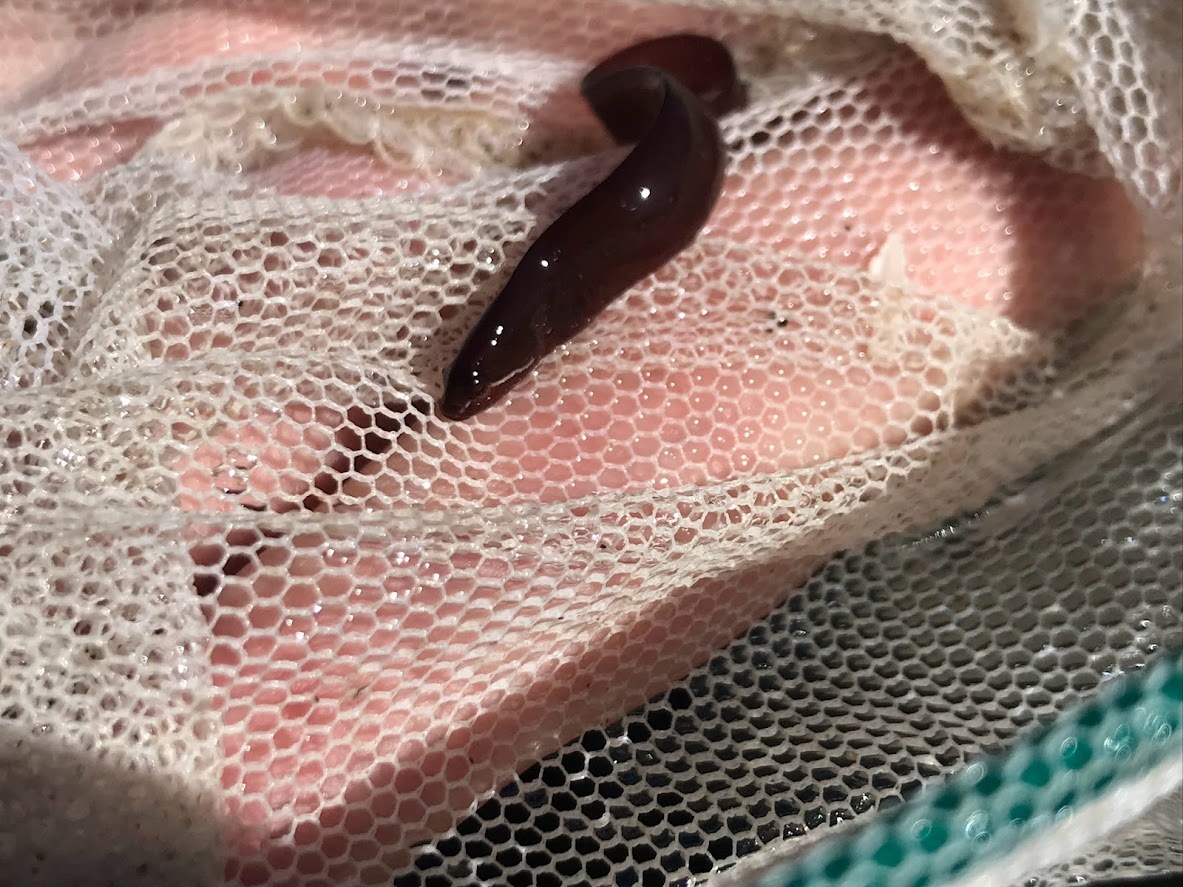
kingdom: Animalia
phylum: Chordata
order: Perciformes
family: Pholidae
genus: Apodichthys
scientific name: Apodichthys flavidus
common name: Penpoint gunnel
